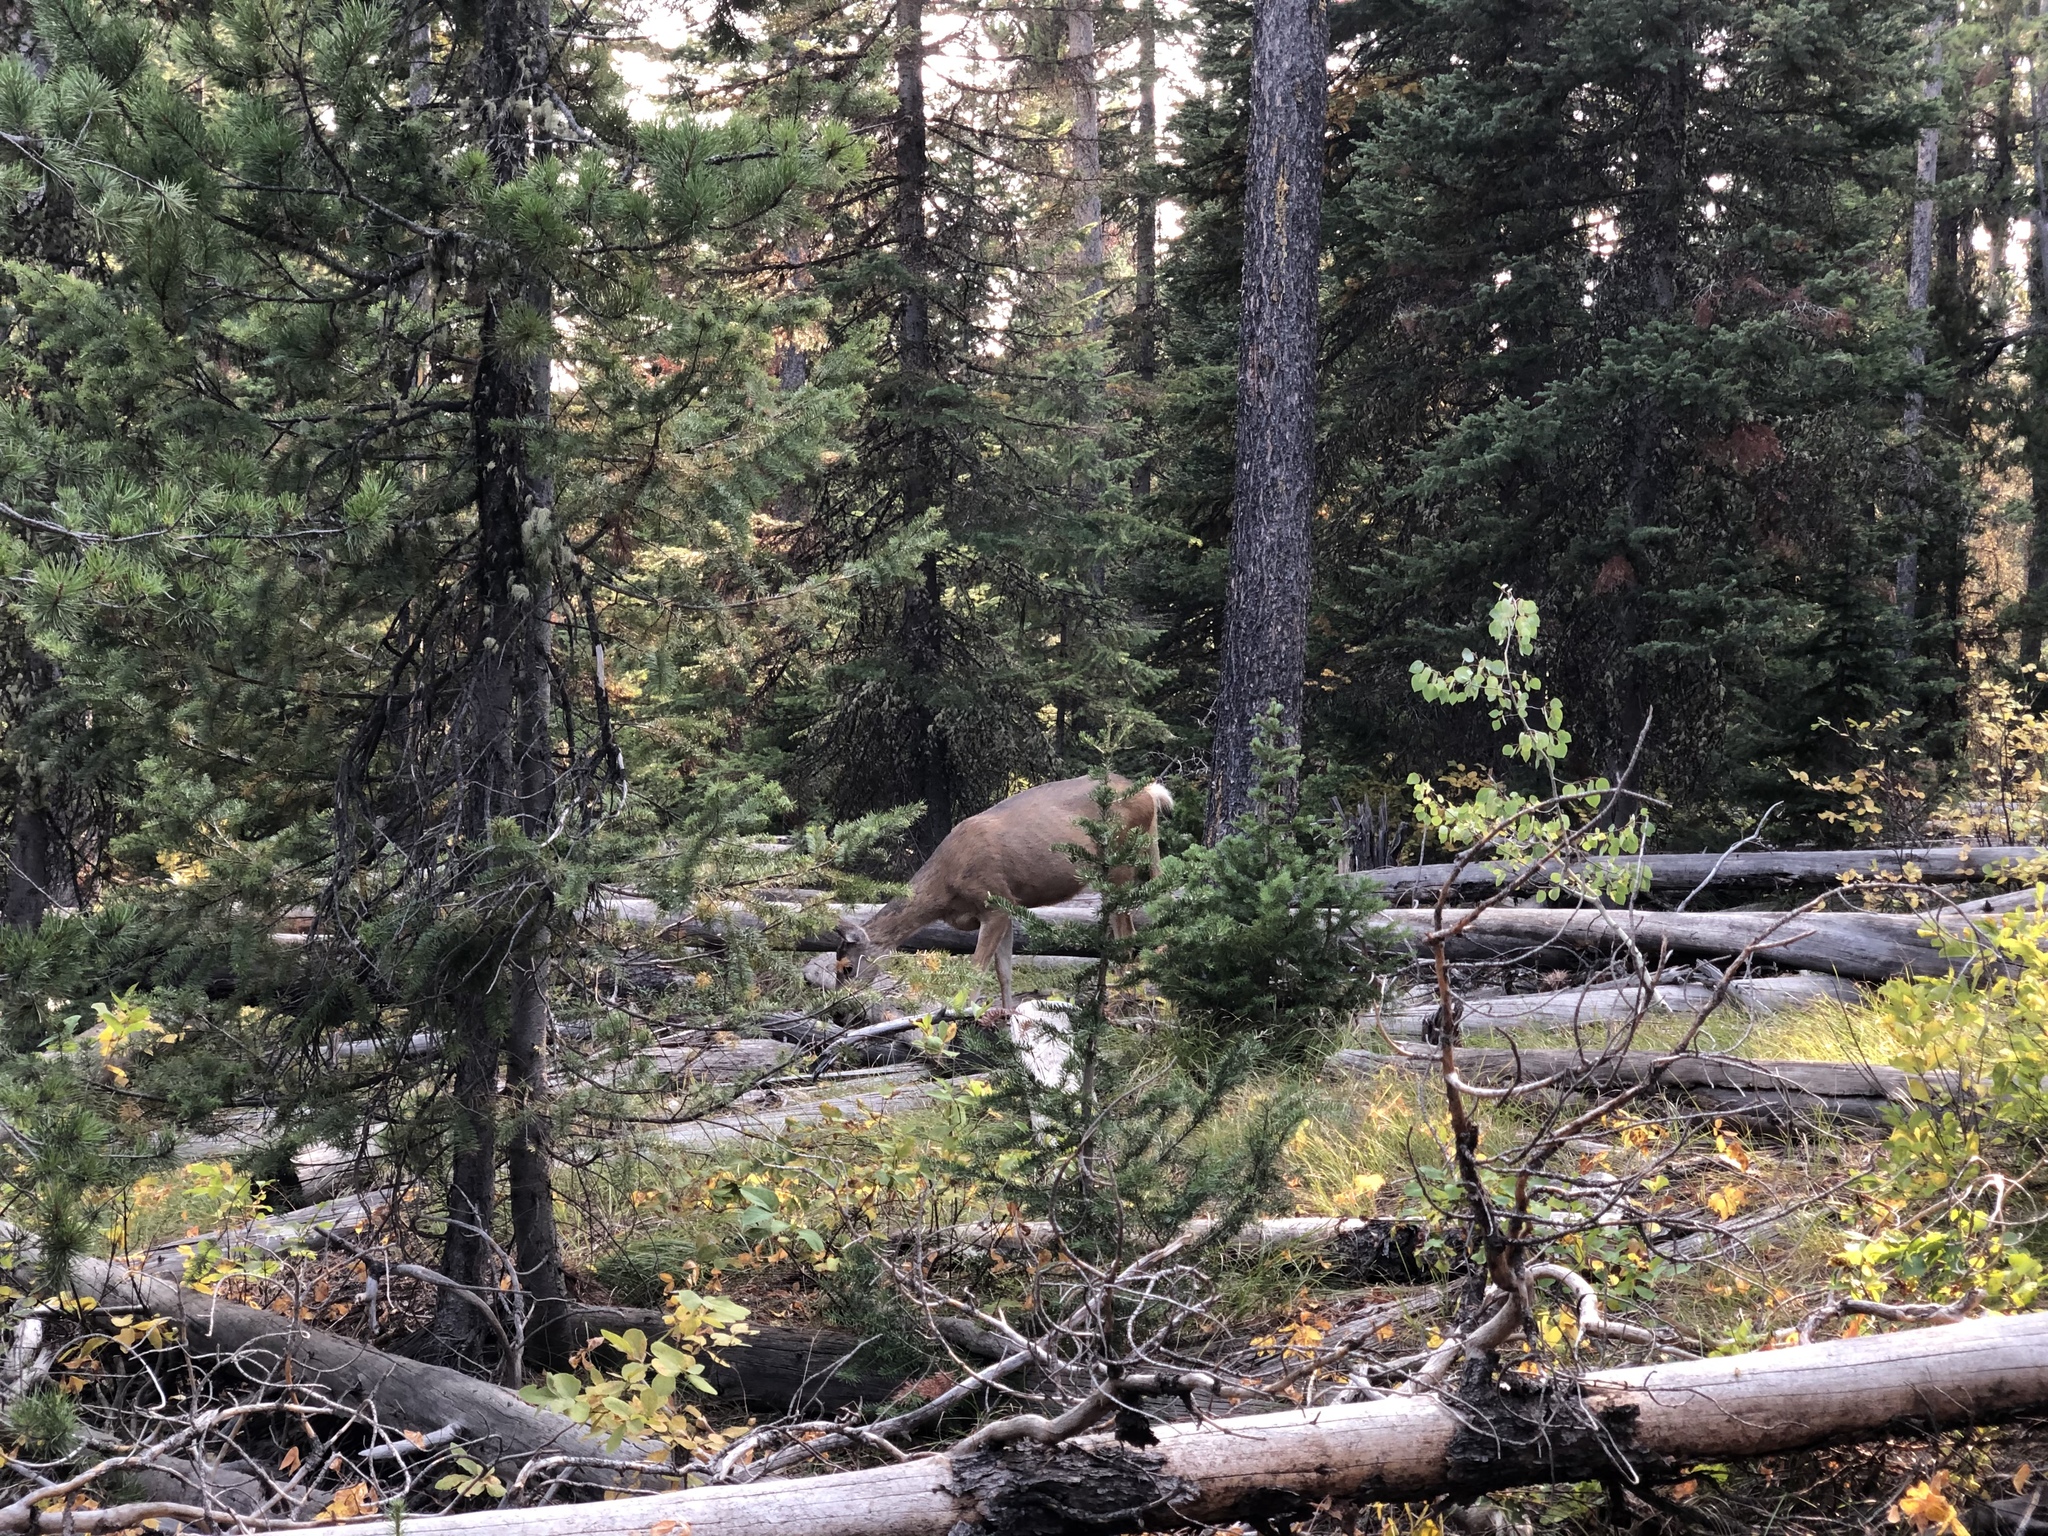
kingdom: Animalia
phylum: Chordata
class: Mammalia
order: Artiodactyla
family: Cervidae
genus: Odocoileus
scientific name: Odocoileus hemionus
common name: Mule deer
